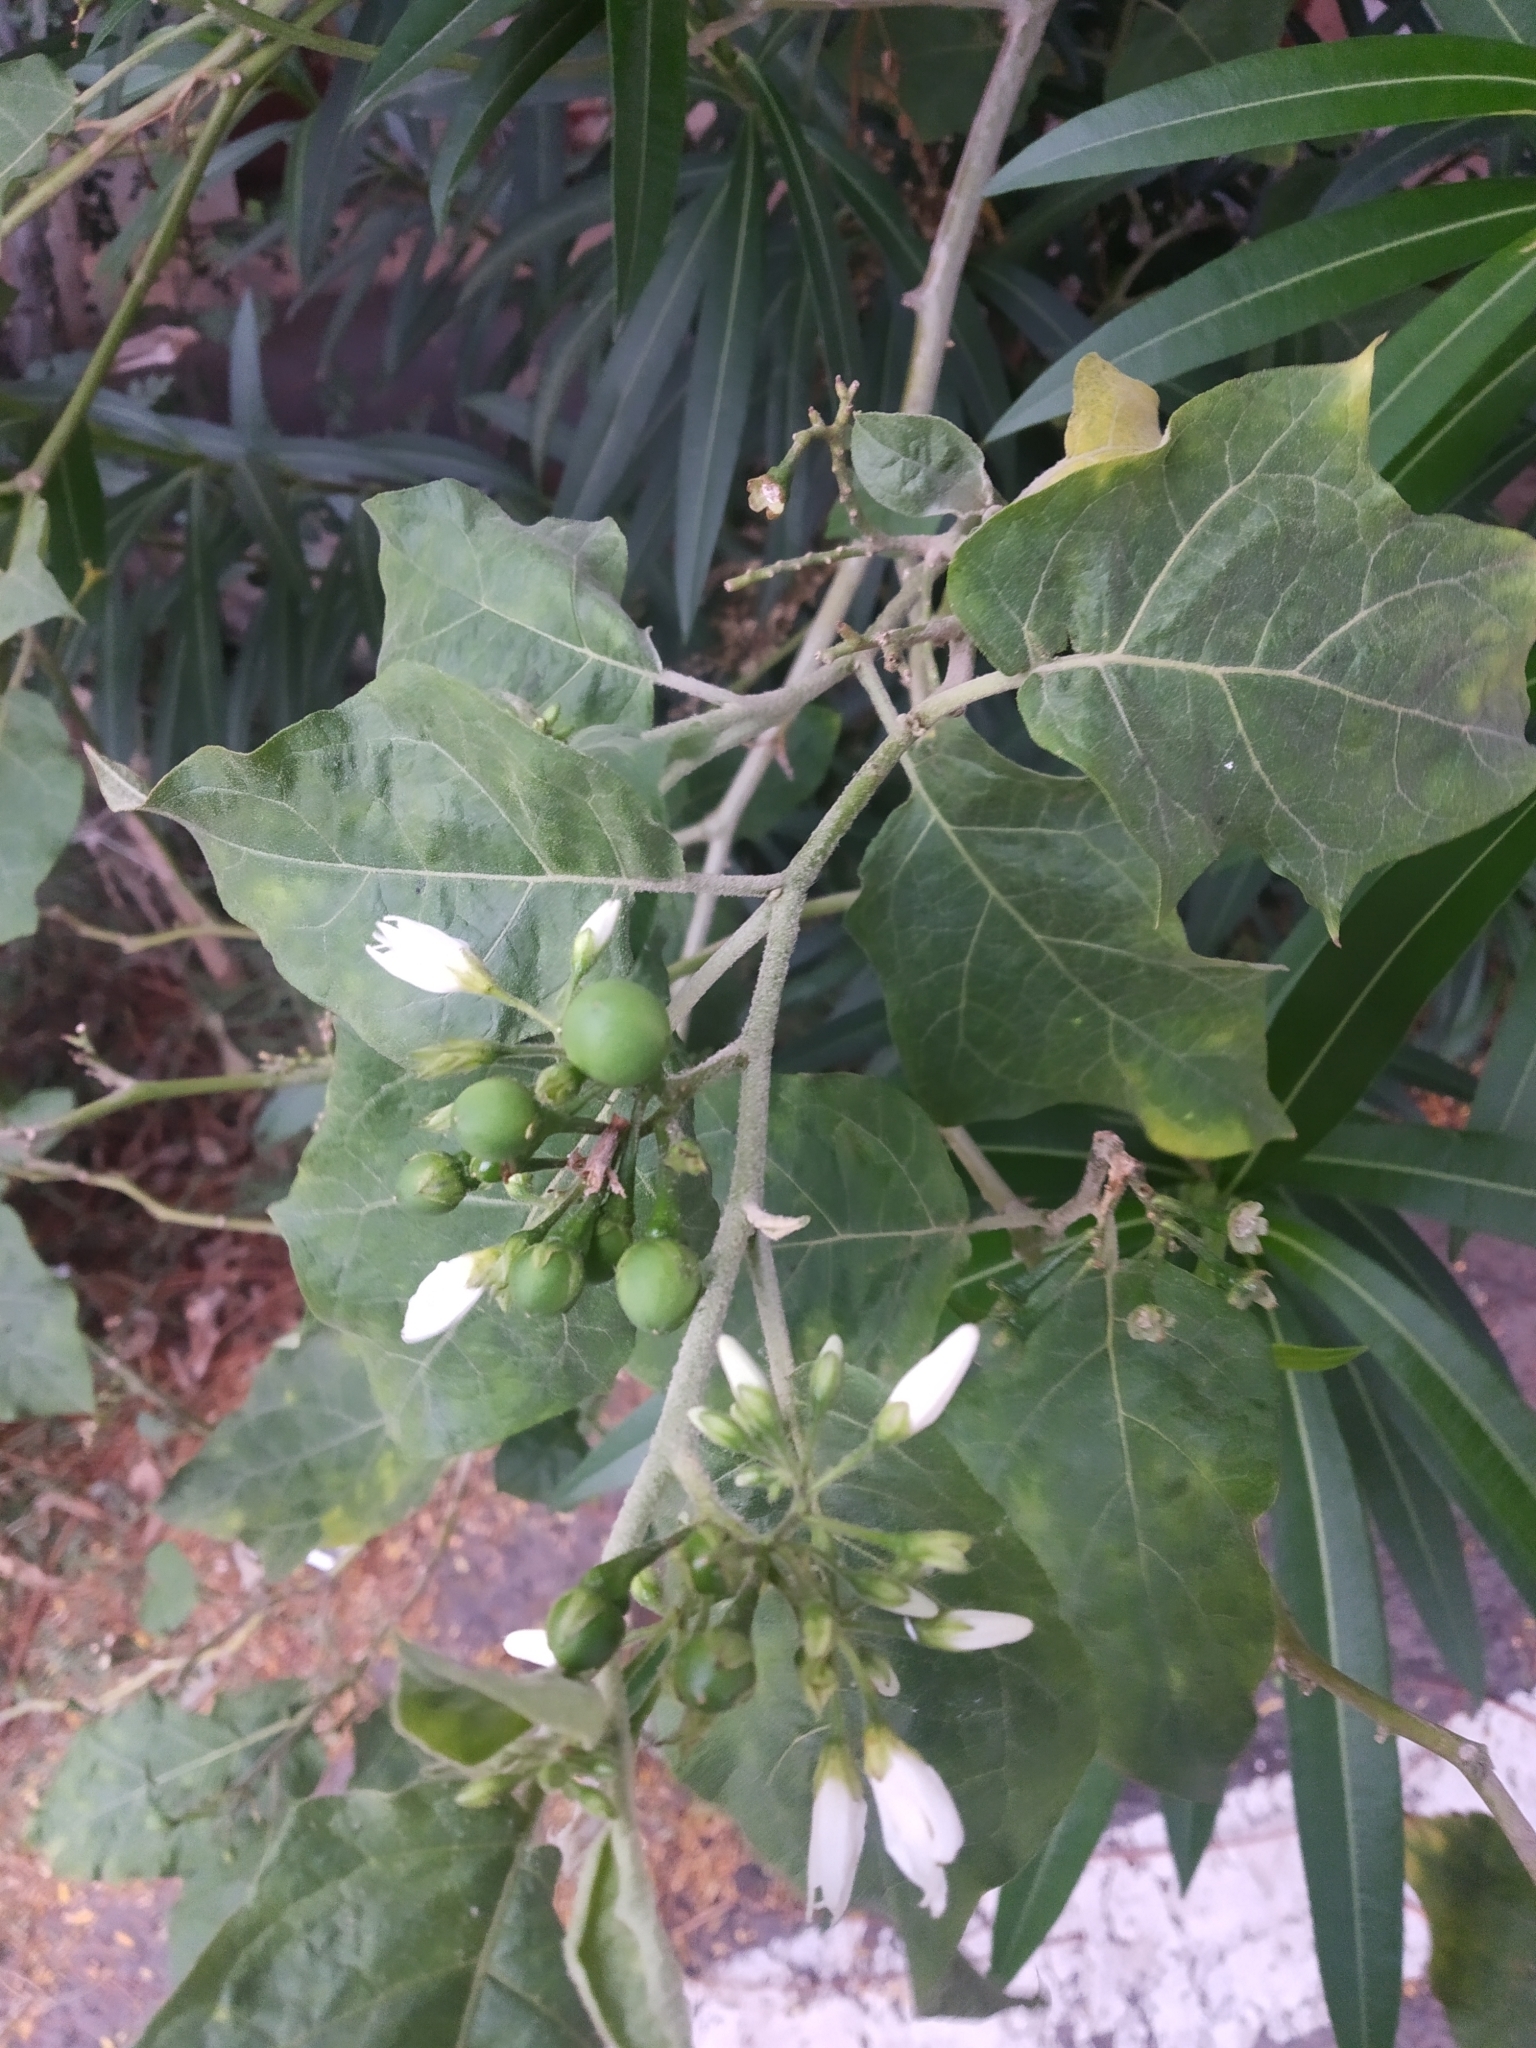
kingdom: Plantae
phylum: Tracheophyta
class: Magnoliopsida
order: Solanales
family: Solanaceae
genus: Solanum
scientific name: Solanum torvum
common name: Turkey berry
